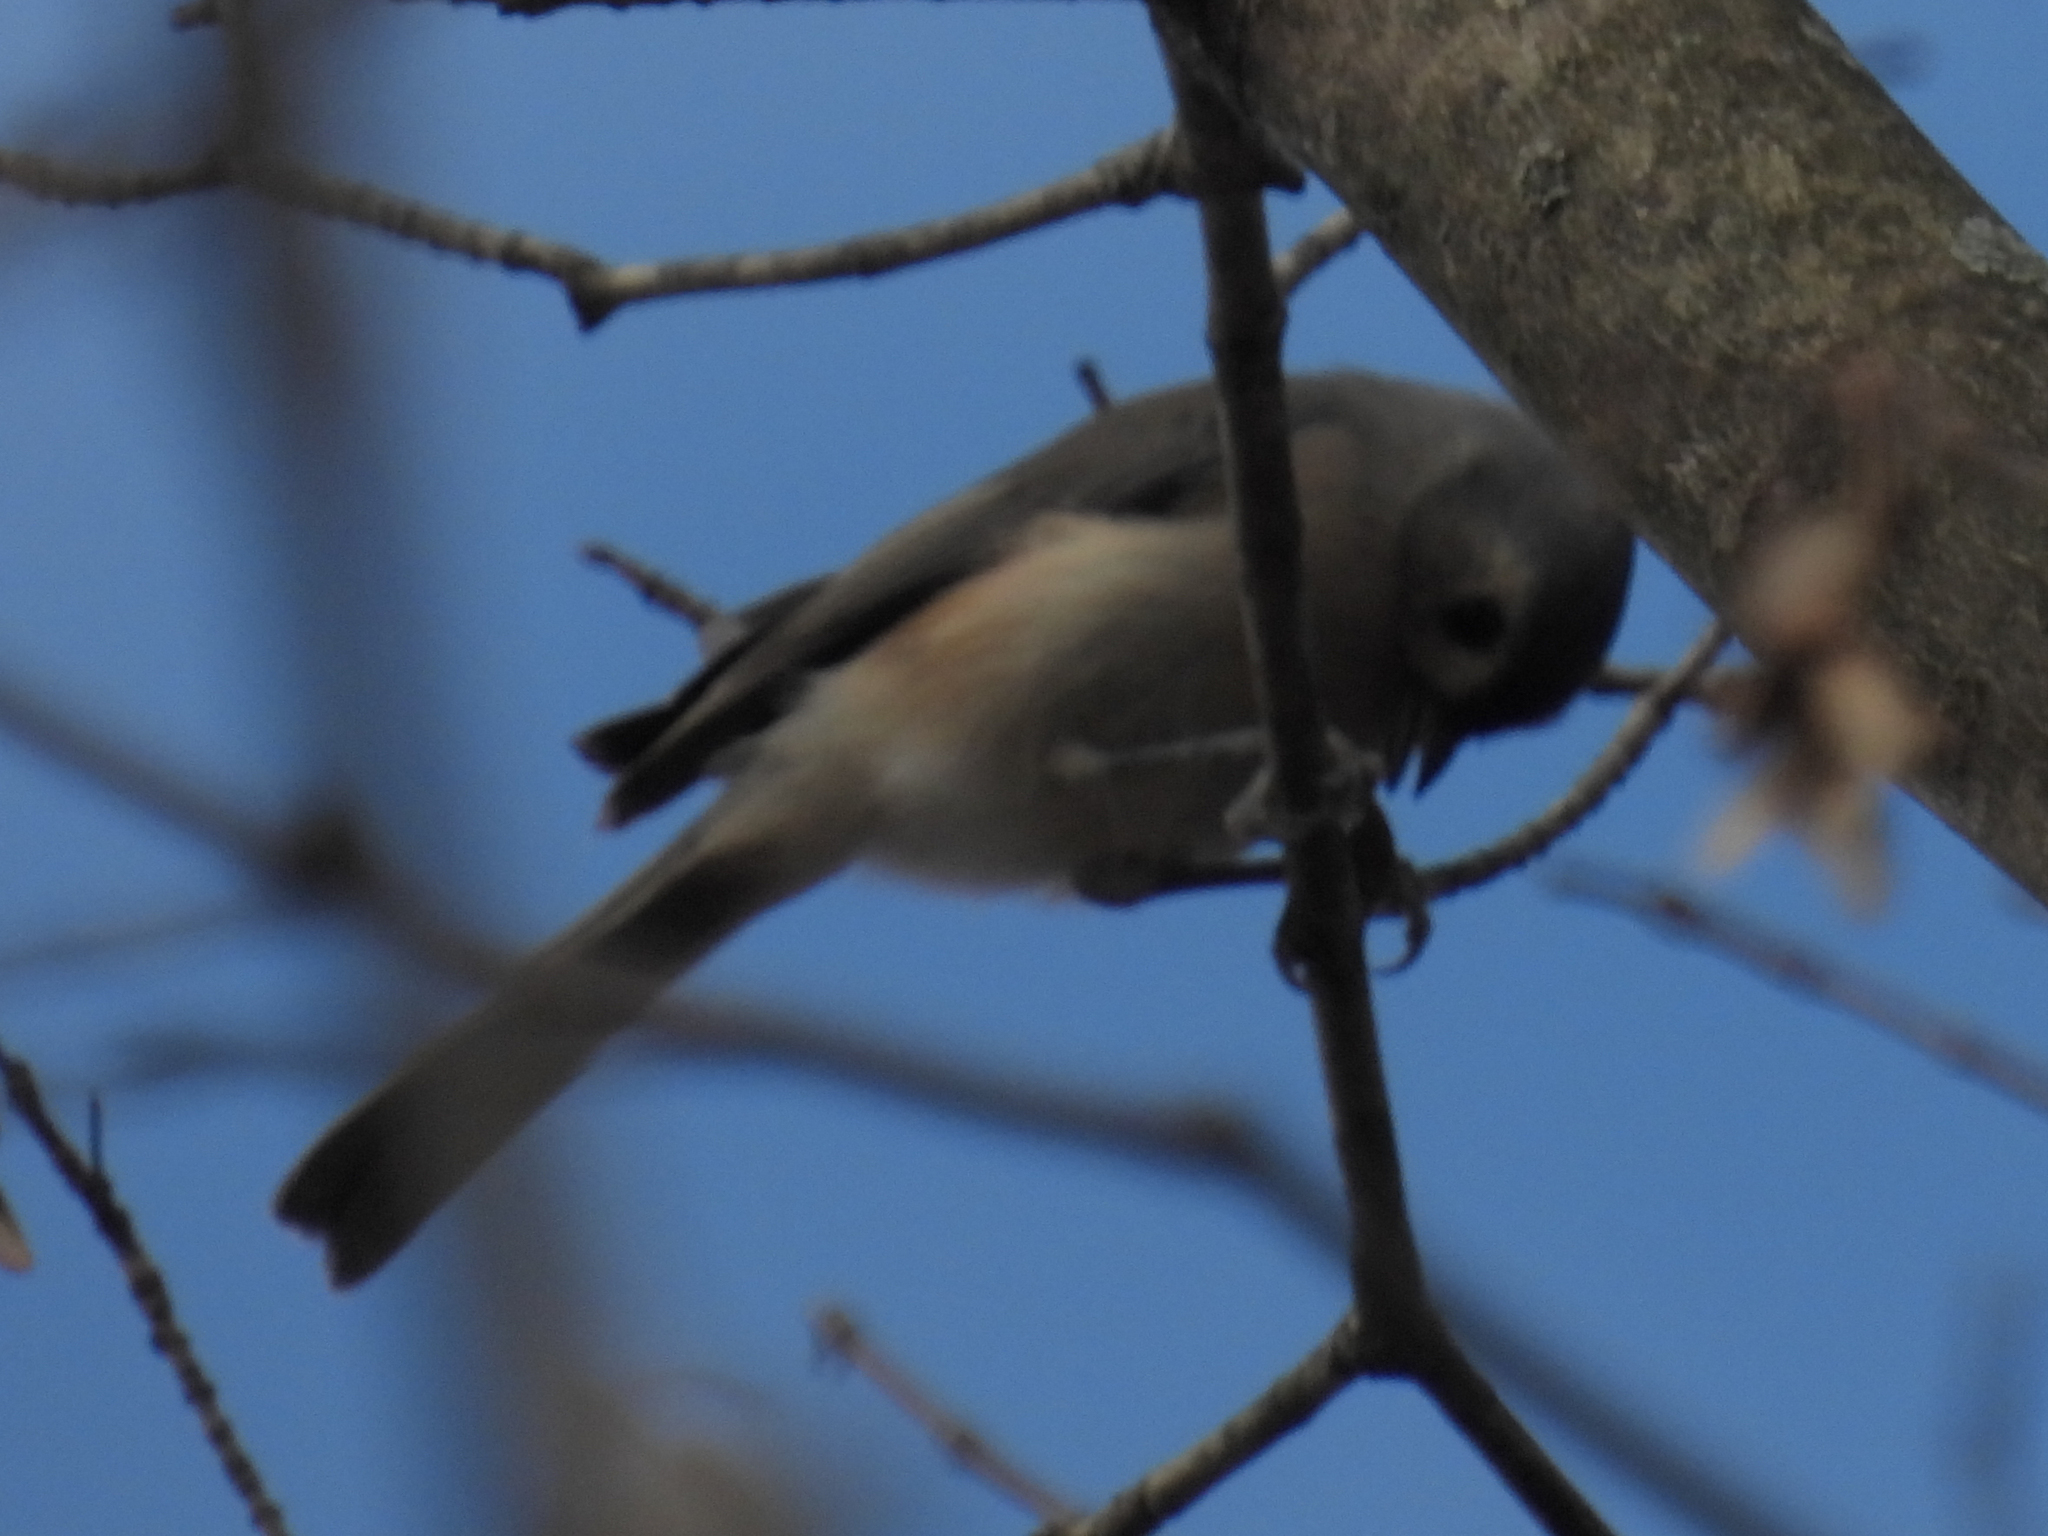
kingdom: Animalia
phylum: Chordata
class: Aves
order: Passeriformes
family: Paridae
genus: Baeolophus
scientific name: Baeolophus bicolor
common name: Tufted titmouse
